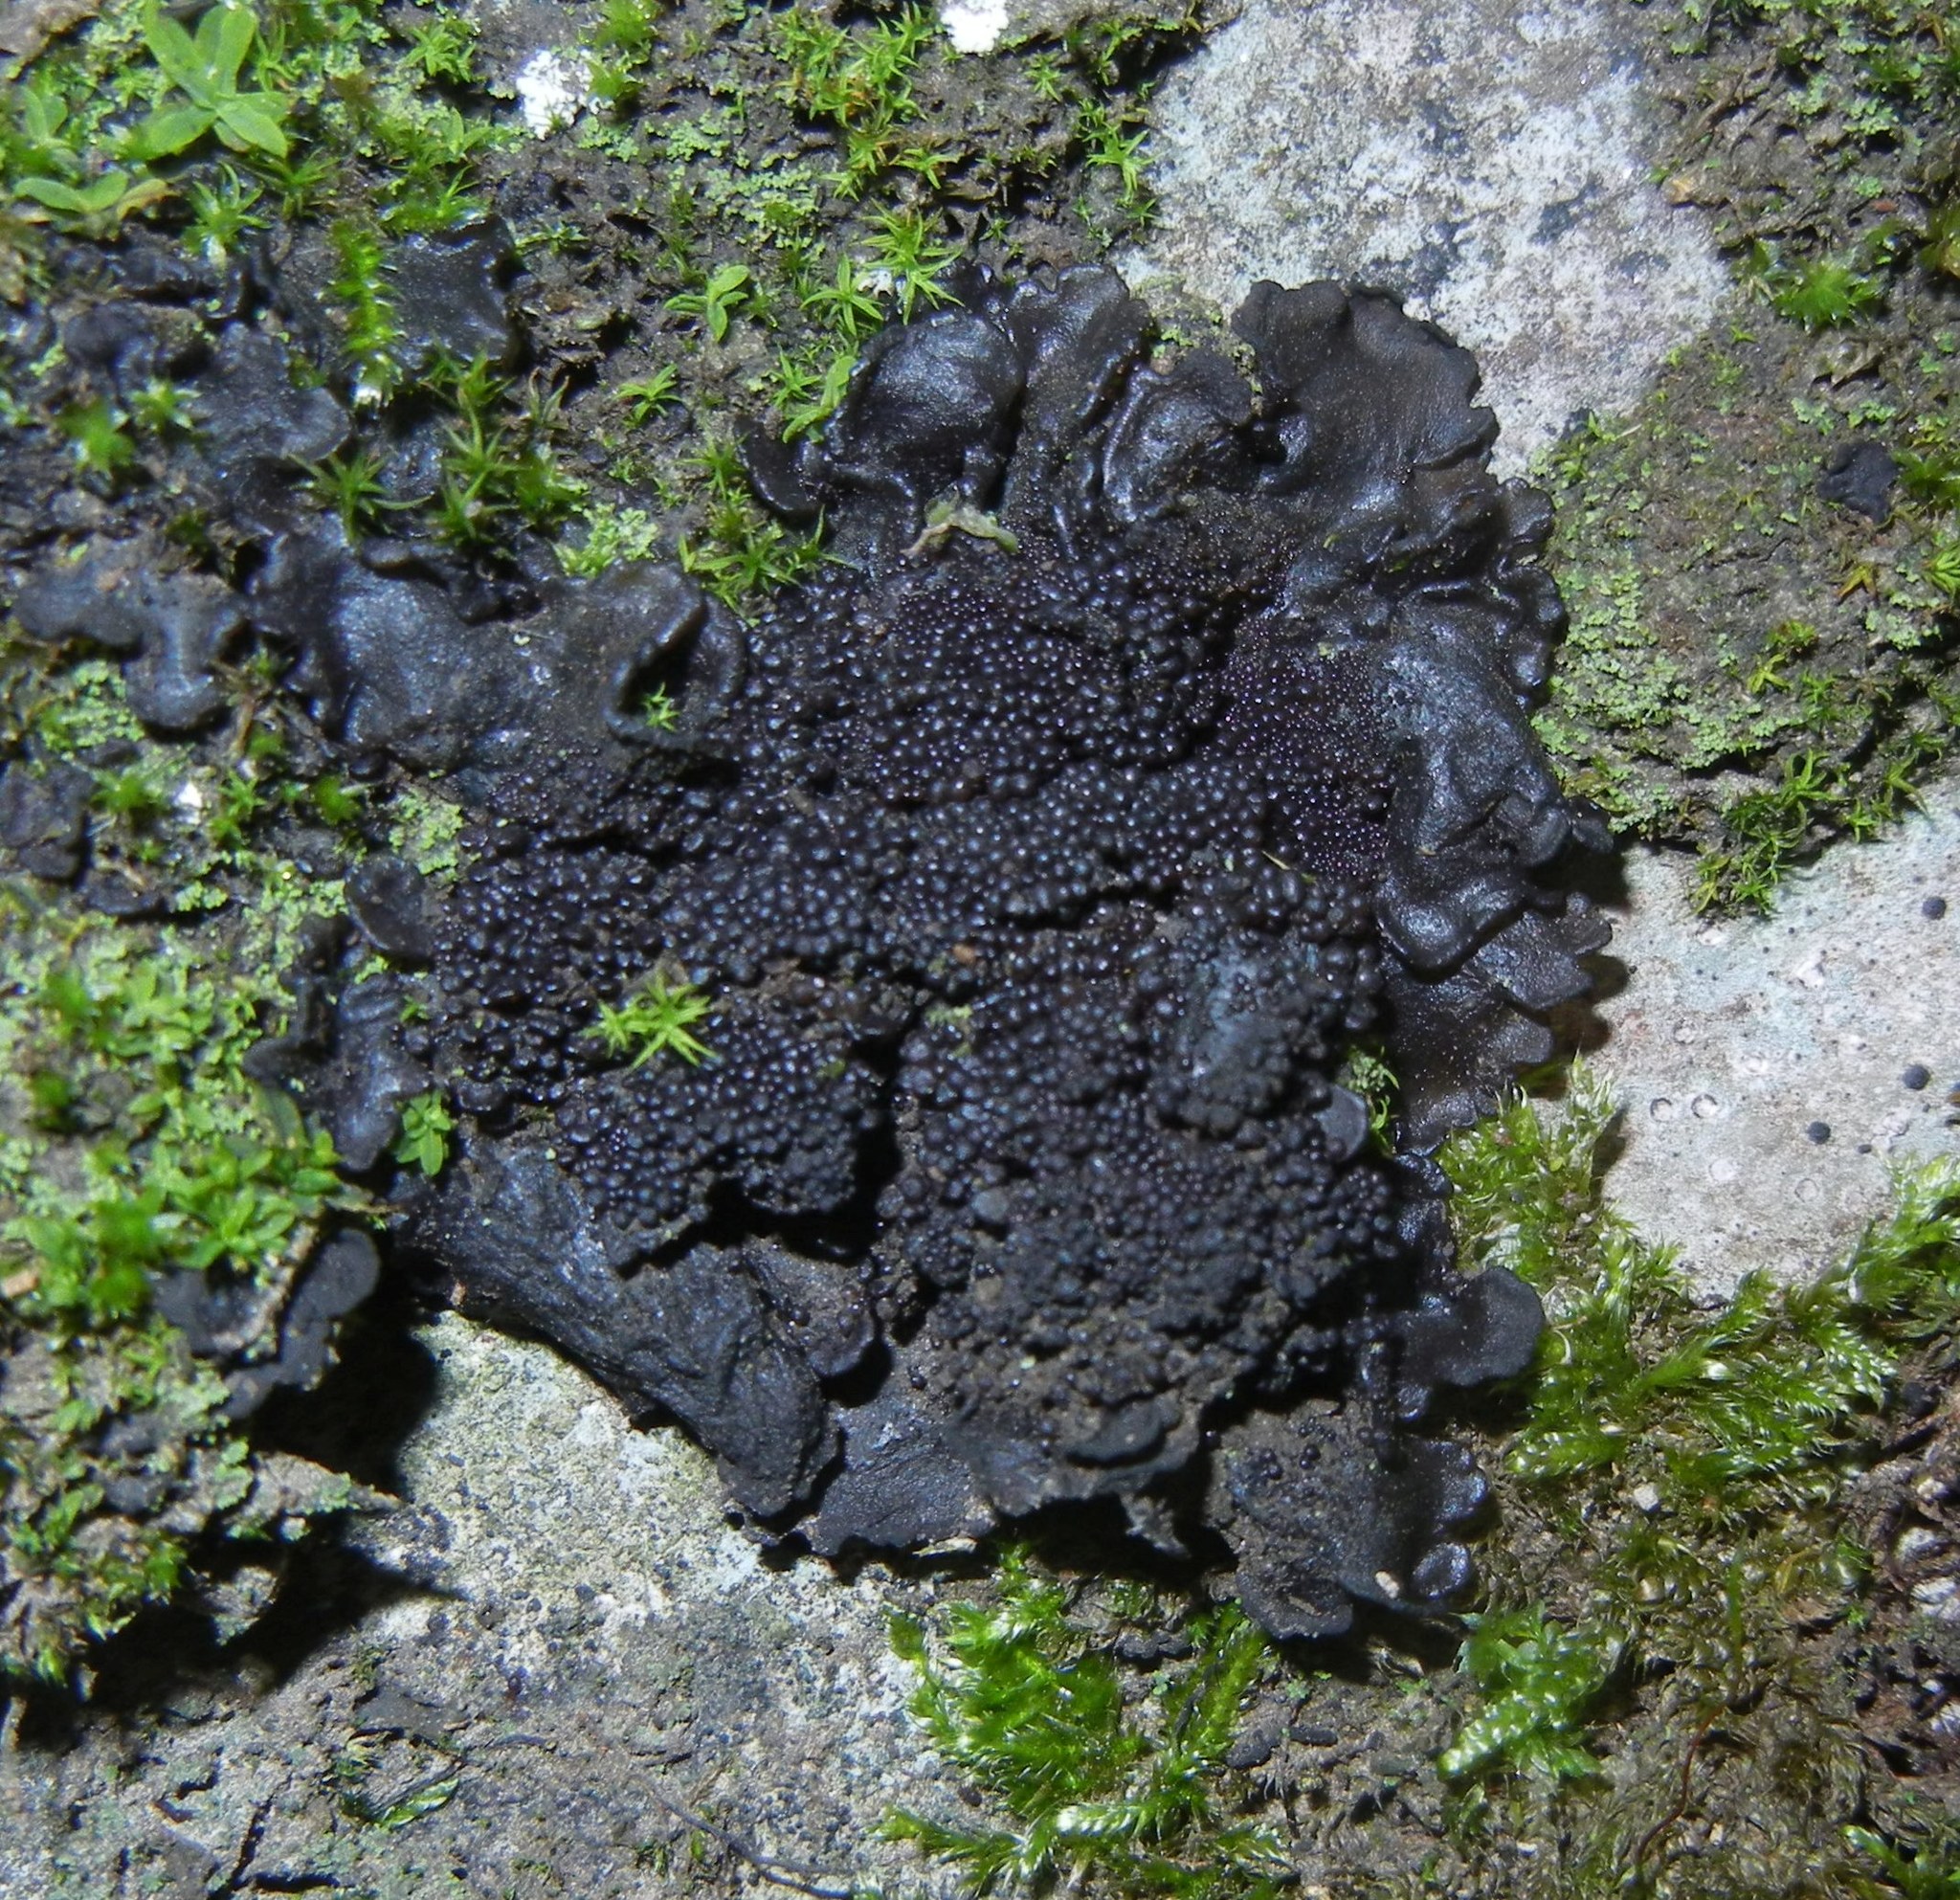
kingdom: Fungi
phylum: Ascomycota
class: Lecanoromycetes
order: Peltigerales
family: Collemataceae
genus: Lathagrium
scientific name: Lathagrium auriforme
